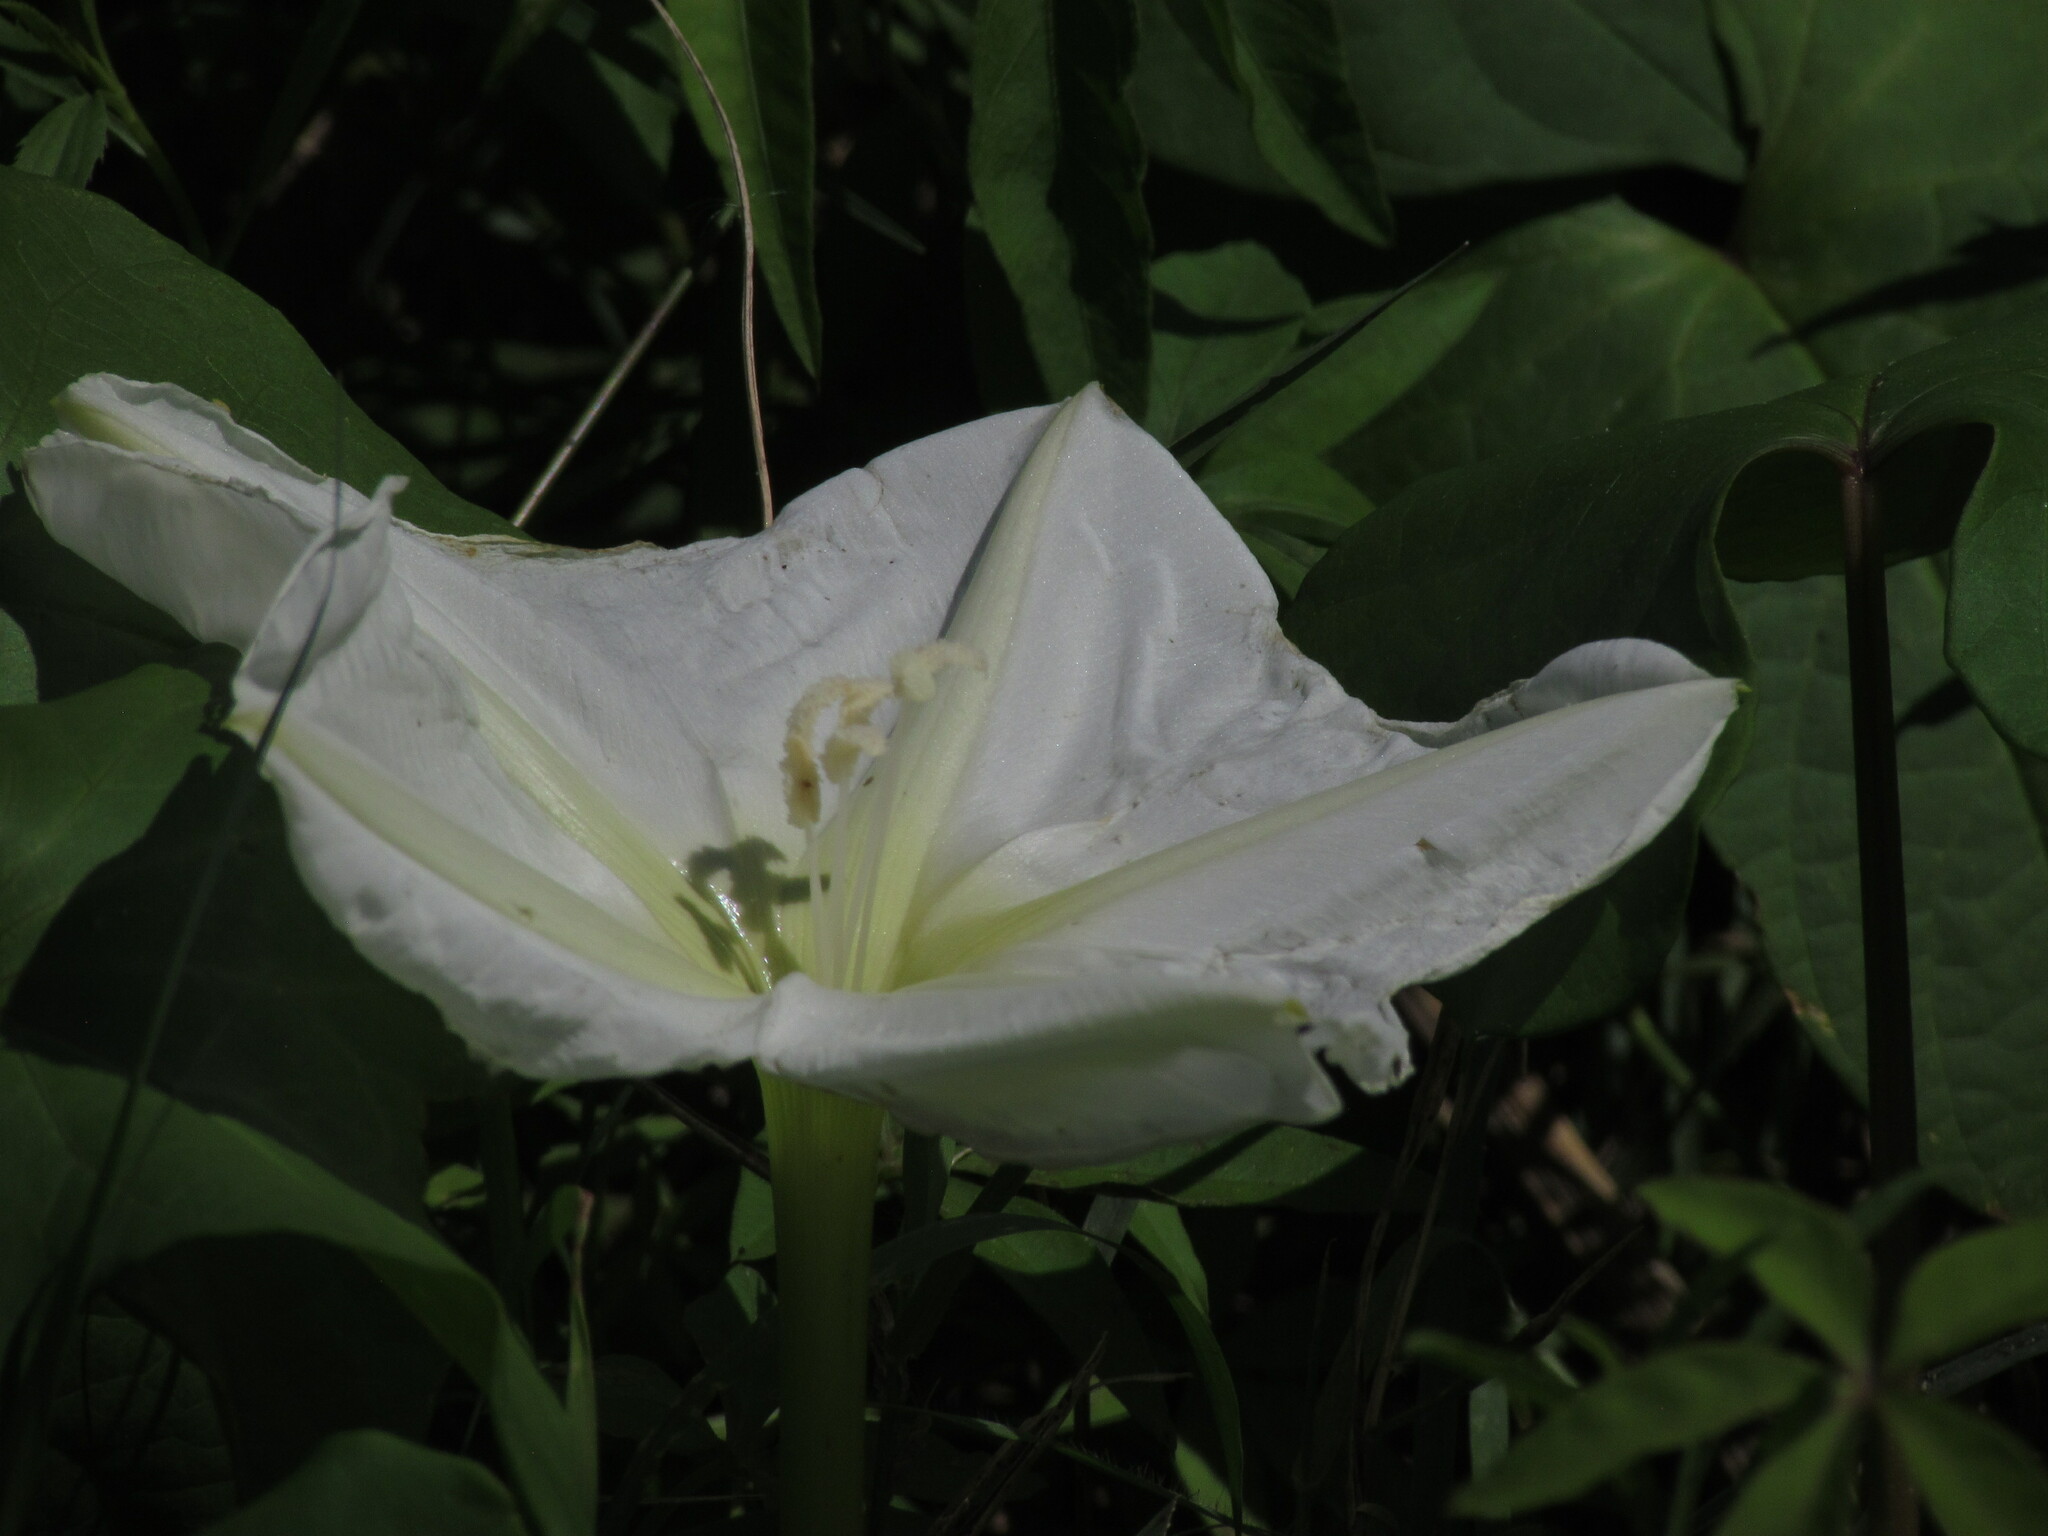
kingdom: Plantae
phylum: Tracheophyta
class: Magnoliopsida
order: Solanales
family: Convolvulaceae
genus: Ipomoea
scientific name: Ipomoea alba
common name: Moonflower
